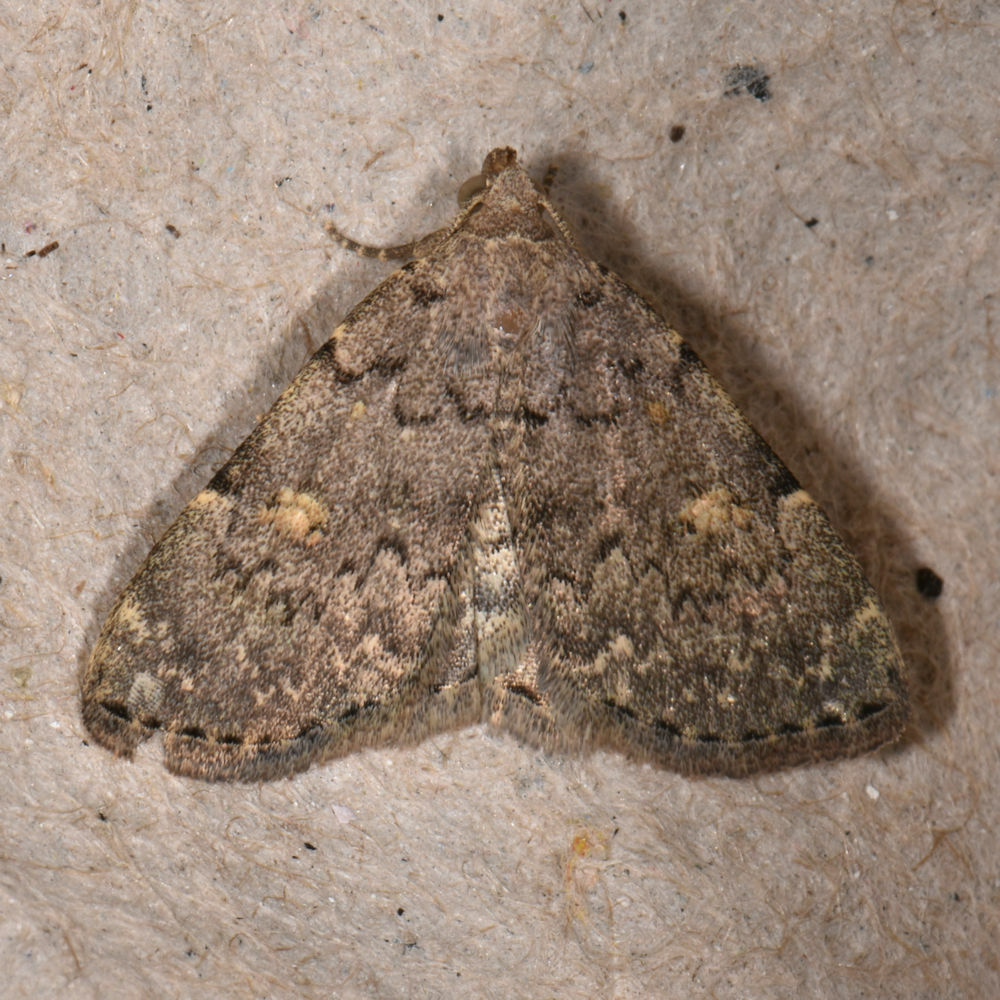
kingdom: Animalia
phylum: Arthropoda
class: Insecta
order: Lepidoptera
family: Erebidae
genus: Idia
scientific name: Idia aemula
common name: Common idia moth
